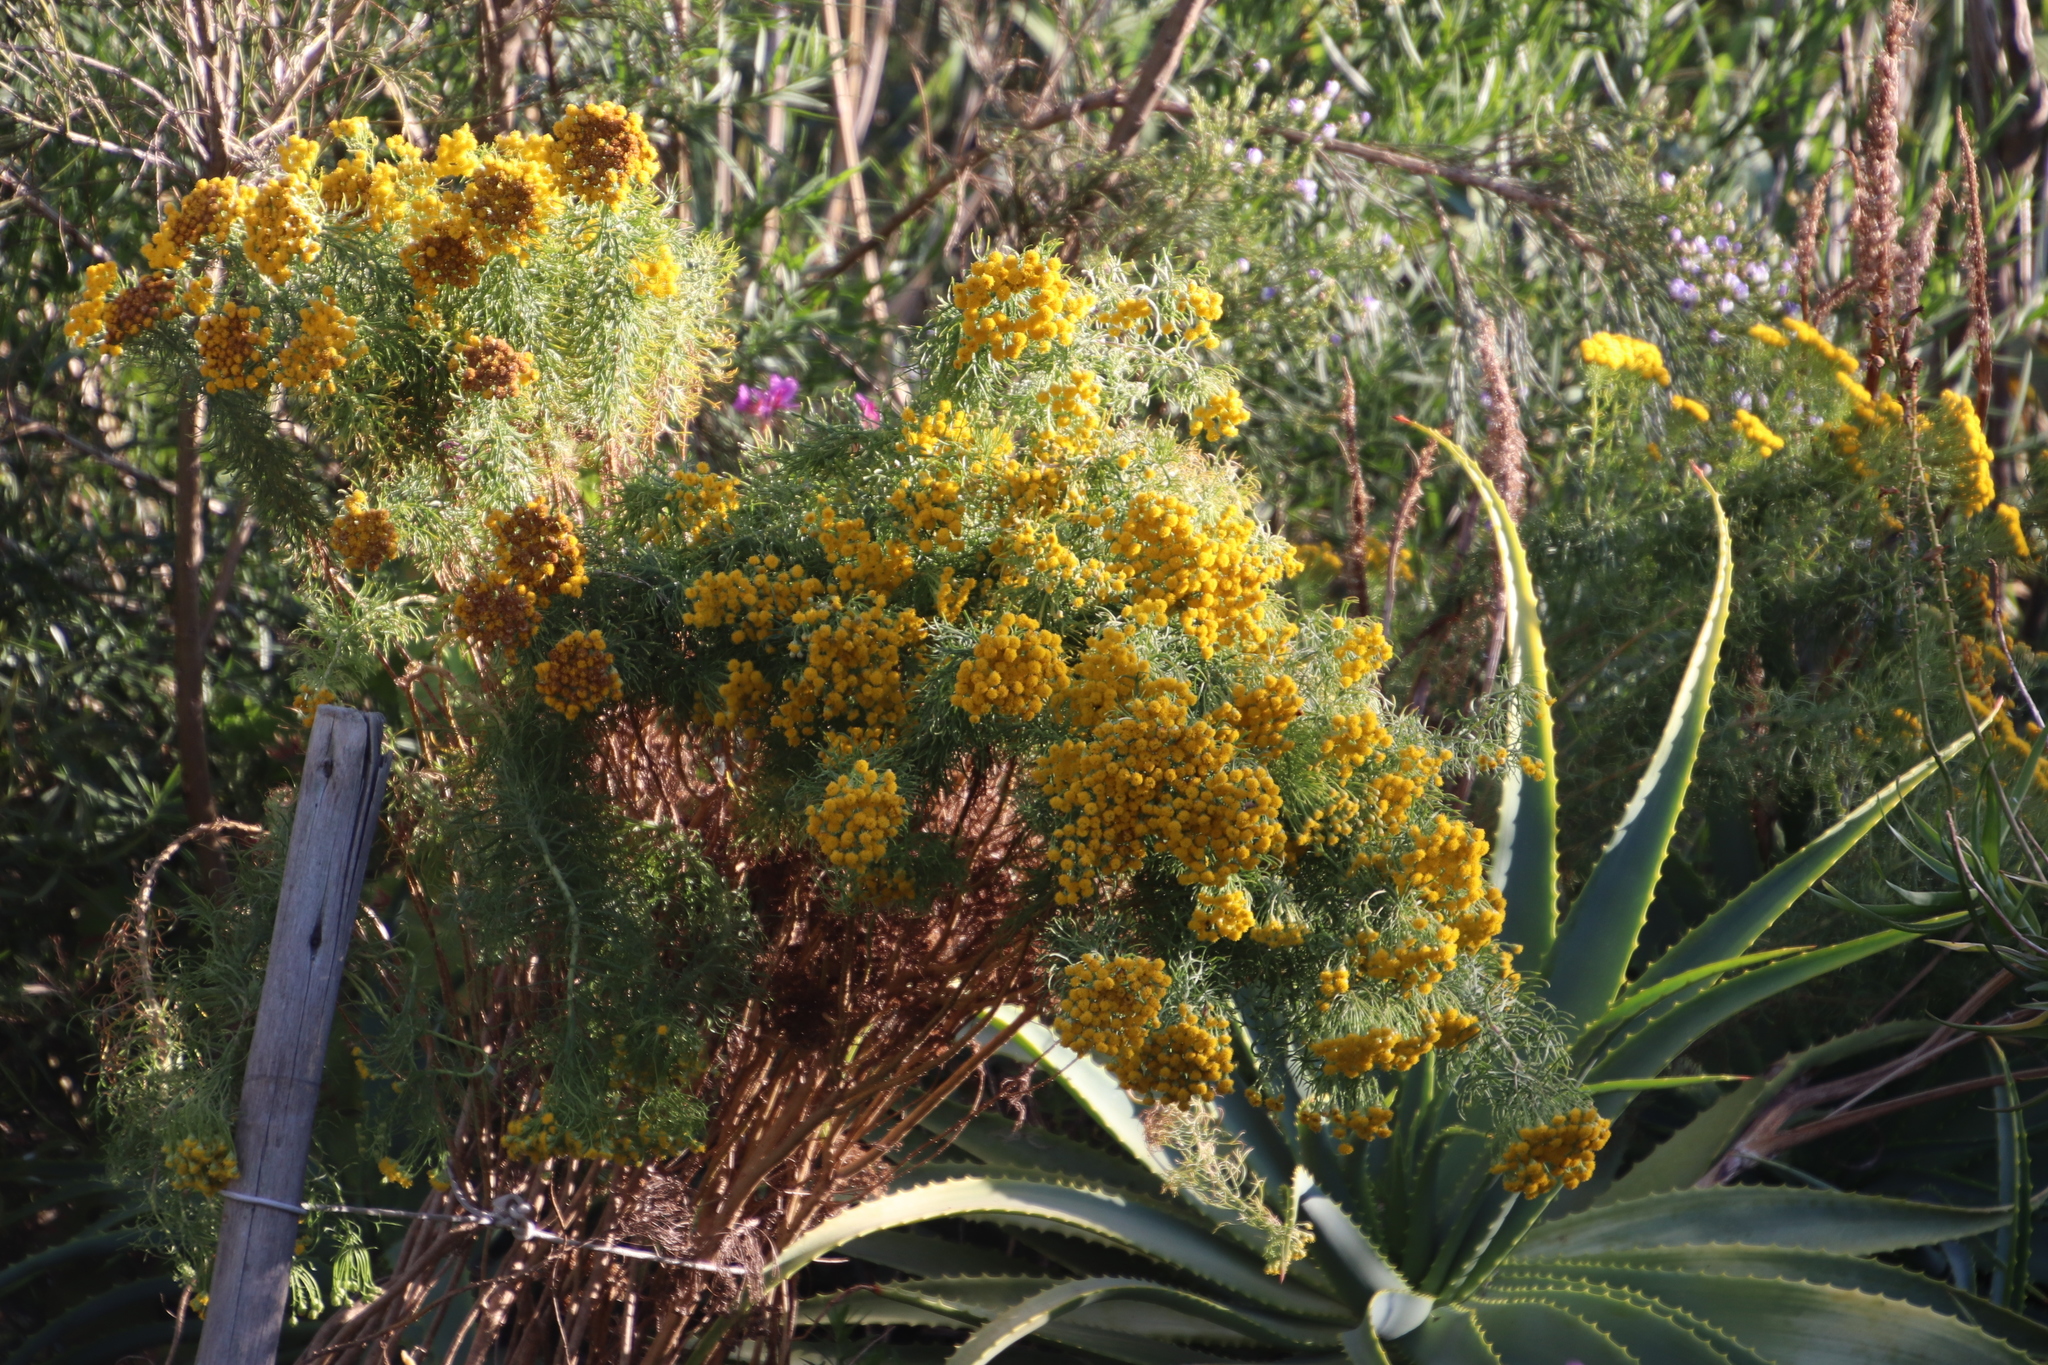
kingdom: Plantae
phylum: Tracheophyta
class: Magnoliopsida
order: Asterales
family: Asteraceae
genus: Athanasia
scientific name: Athanasia crithmifolia
